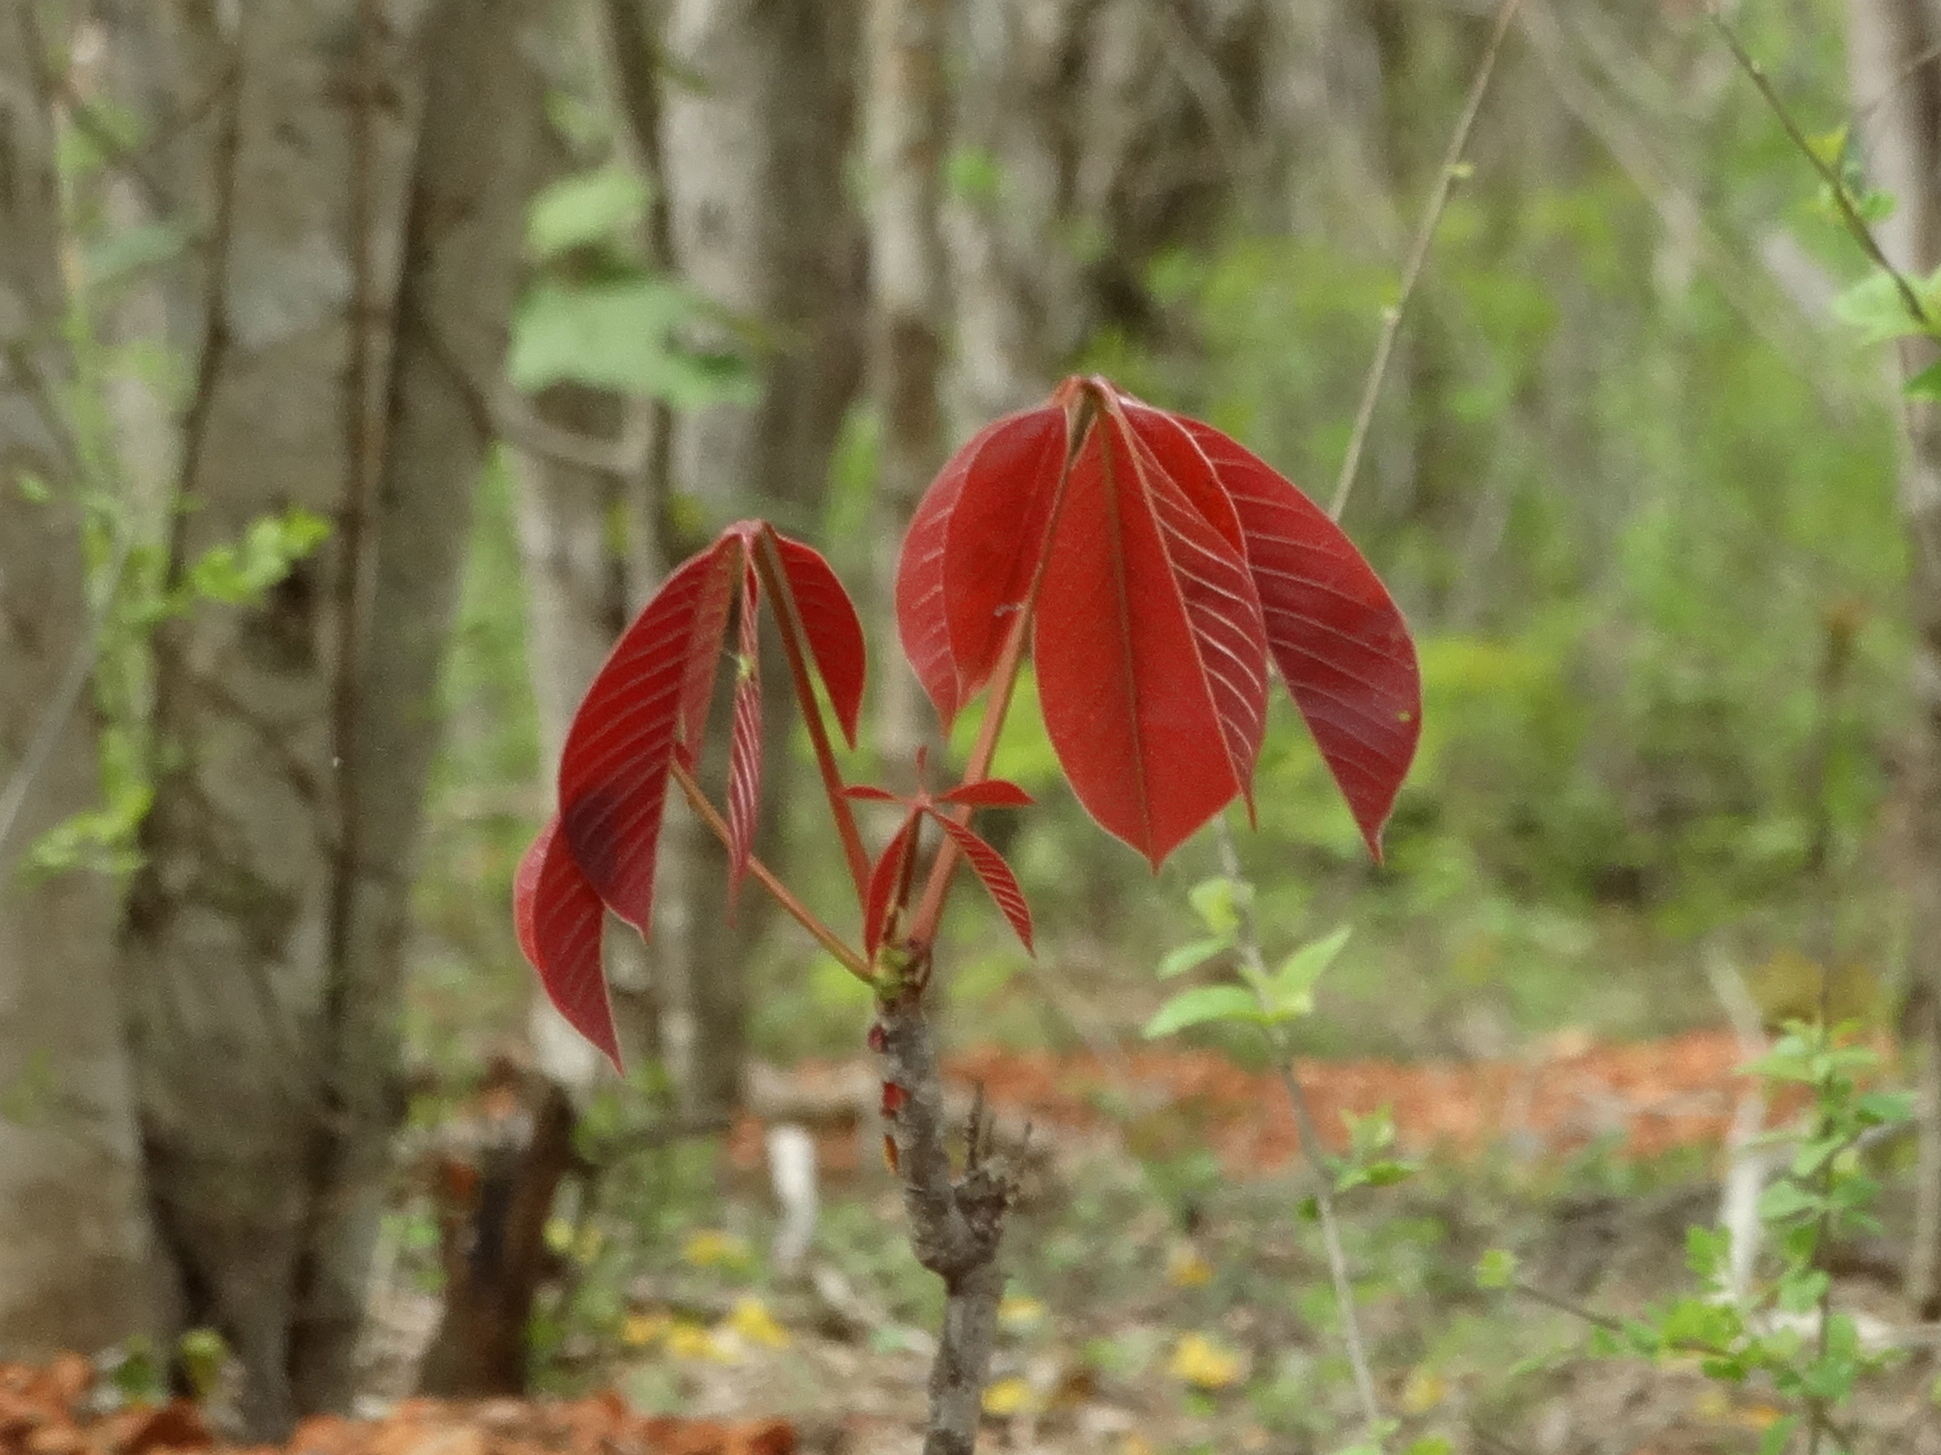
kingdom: Plantae
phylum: Tracheophyta
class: Magnoliopsida
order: Malvales
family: Malvaceae
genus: Pseudobombax
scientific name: Pseudobombax palmeri
